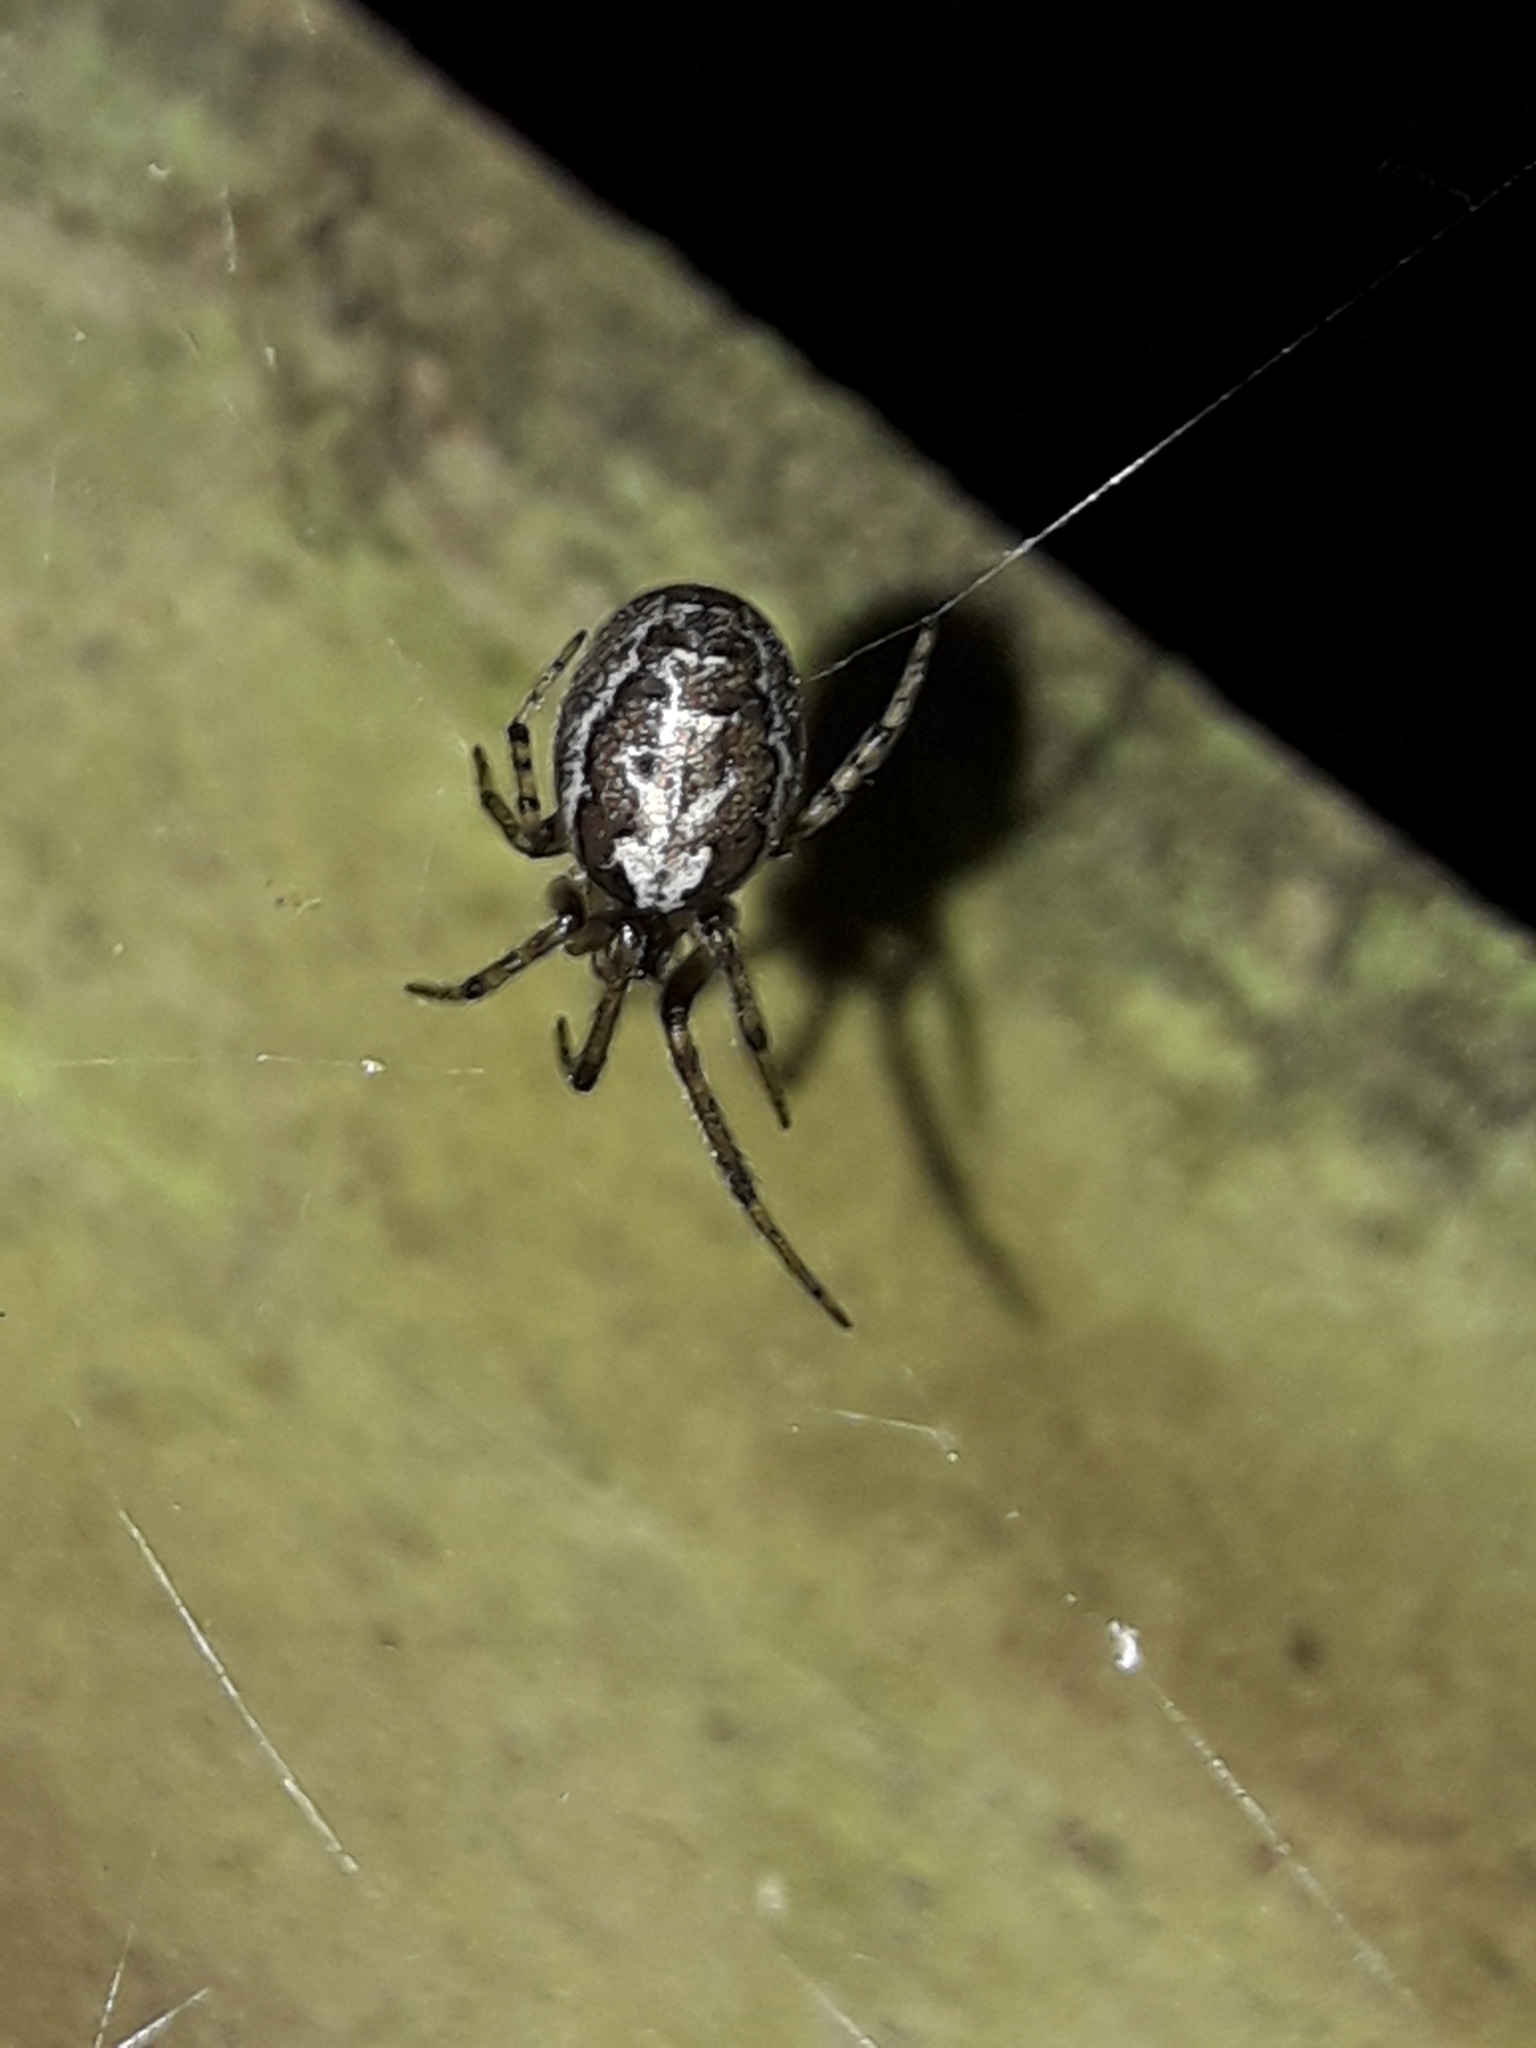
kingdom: Animalia
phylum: Arthropoda
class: Arachnida
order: Araneae
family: Araneidae
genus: Zygiella
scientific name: Zygiella x-notata
